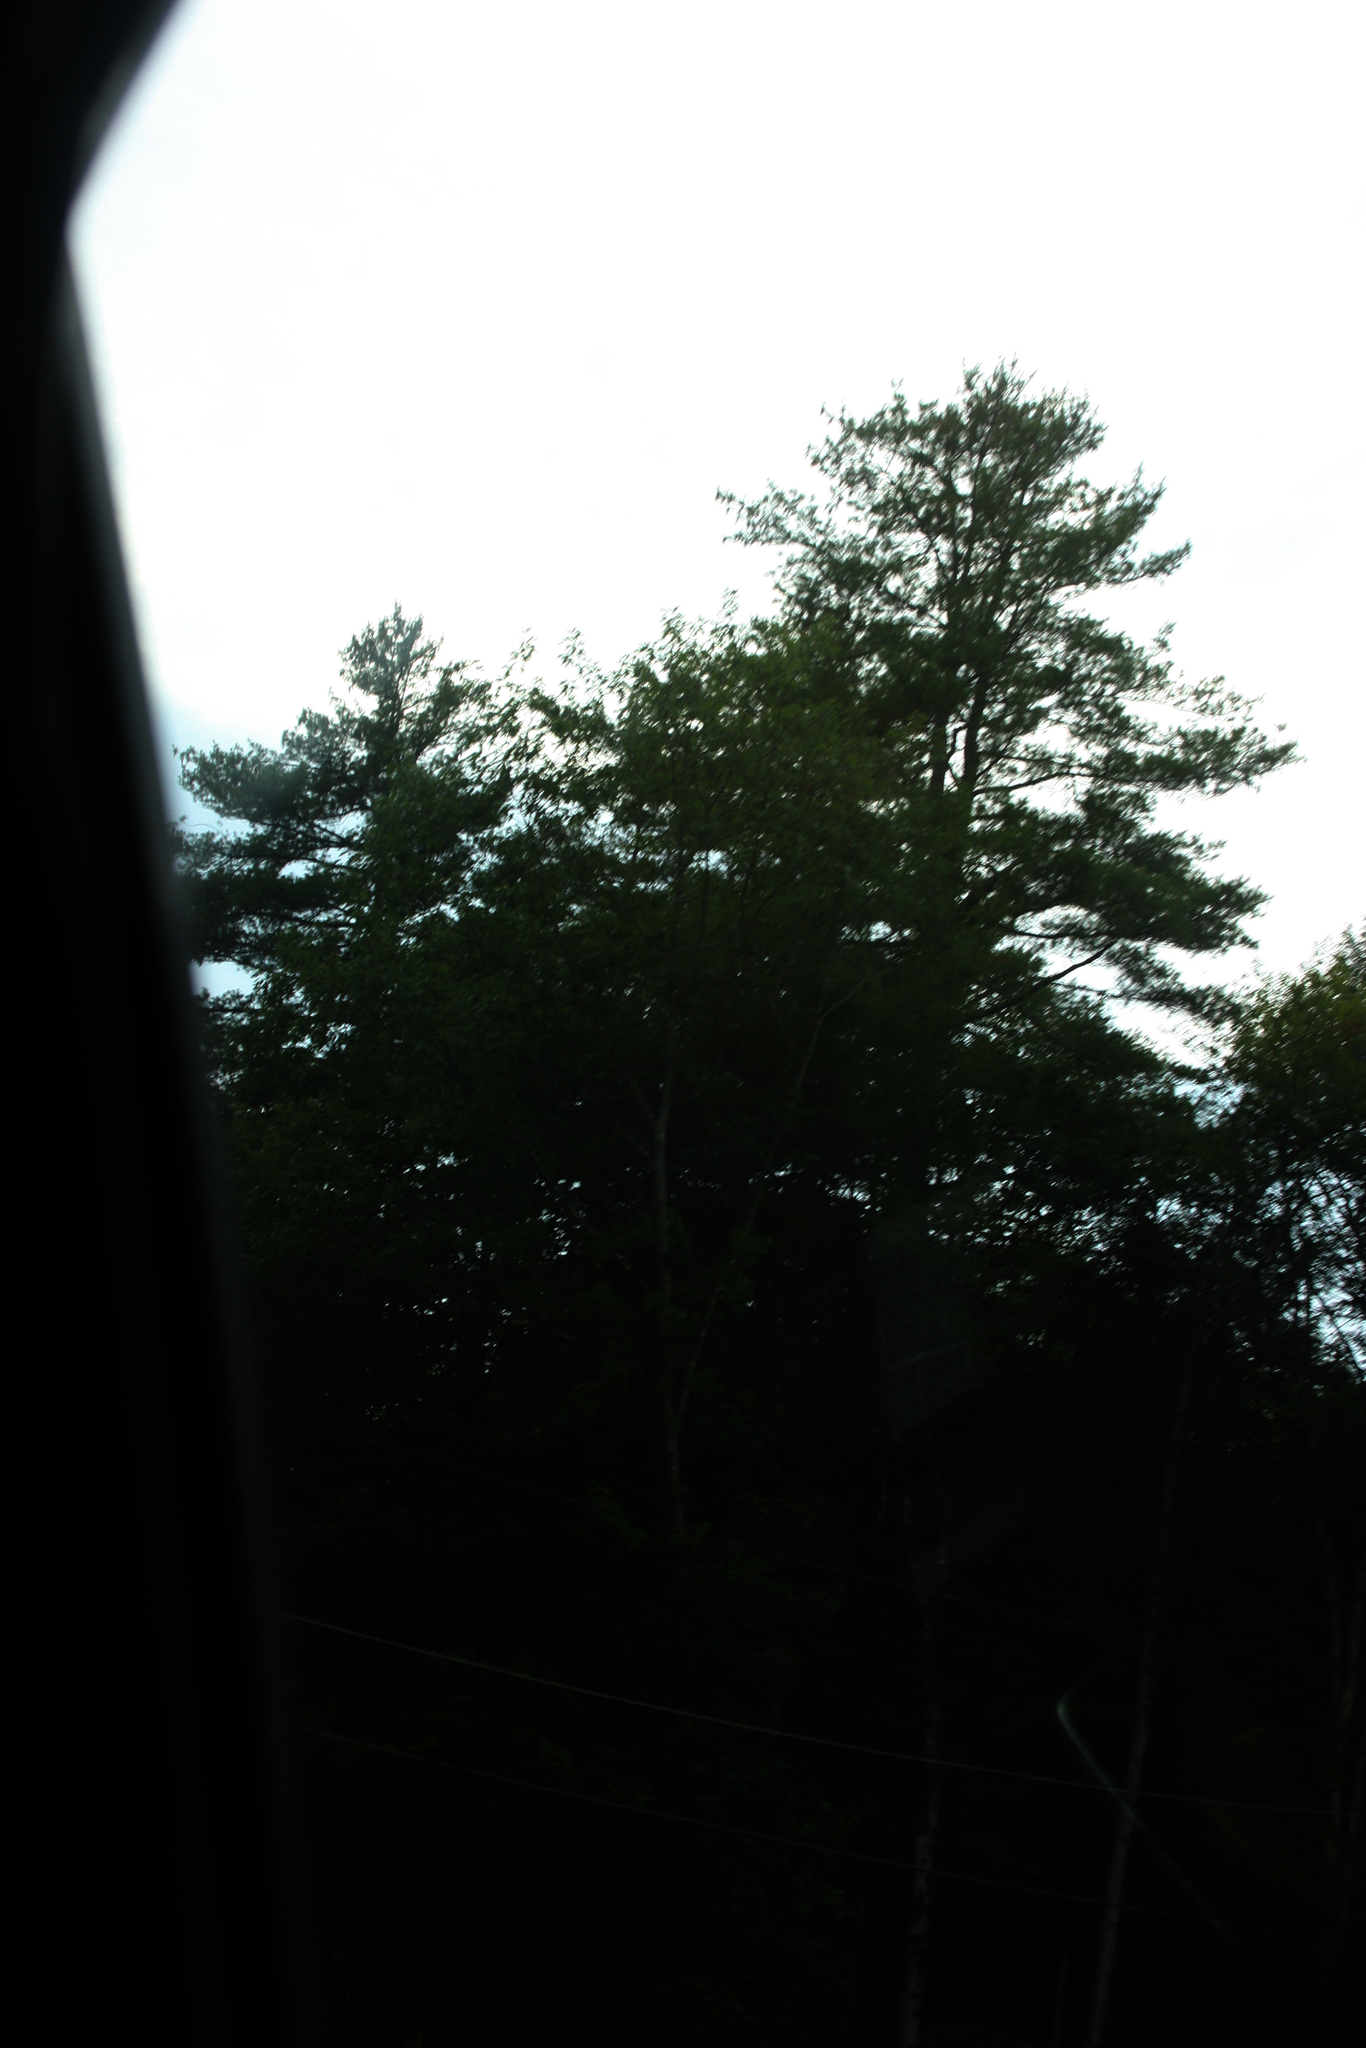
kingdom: Plantae
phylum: Tracheophyta
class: Pinopsida
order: Pinales
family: Pinaceae
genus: Pinus
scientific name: Pinus strobus
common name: Weymouth pine
